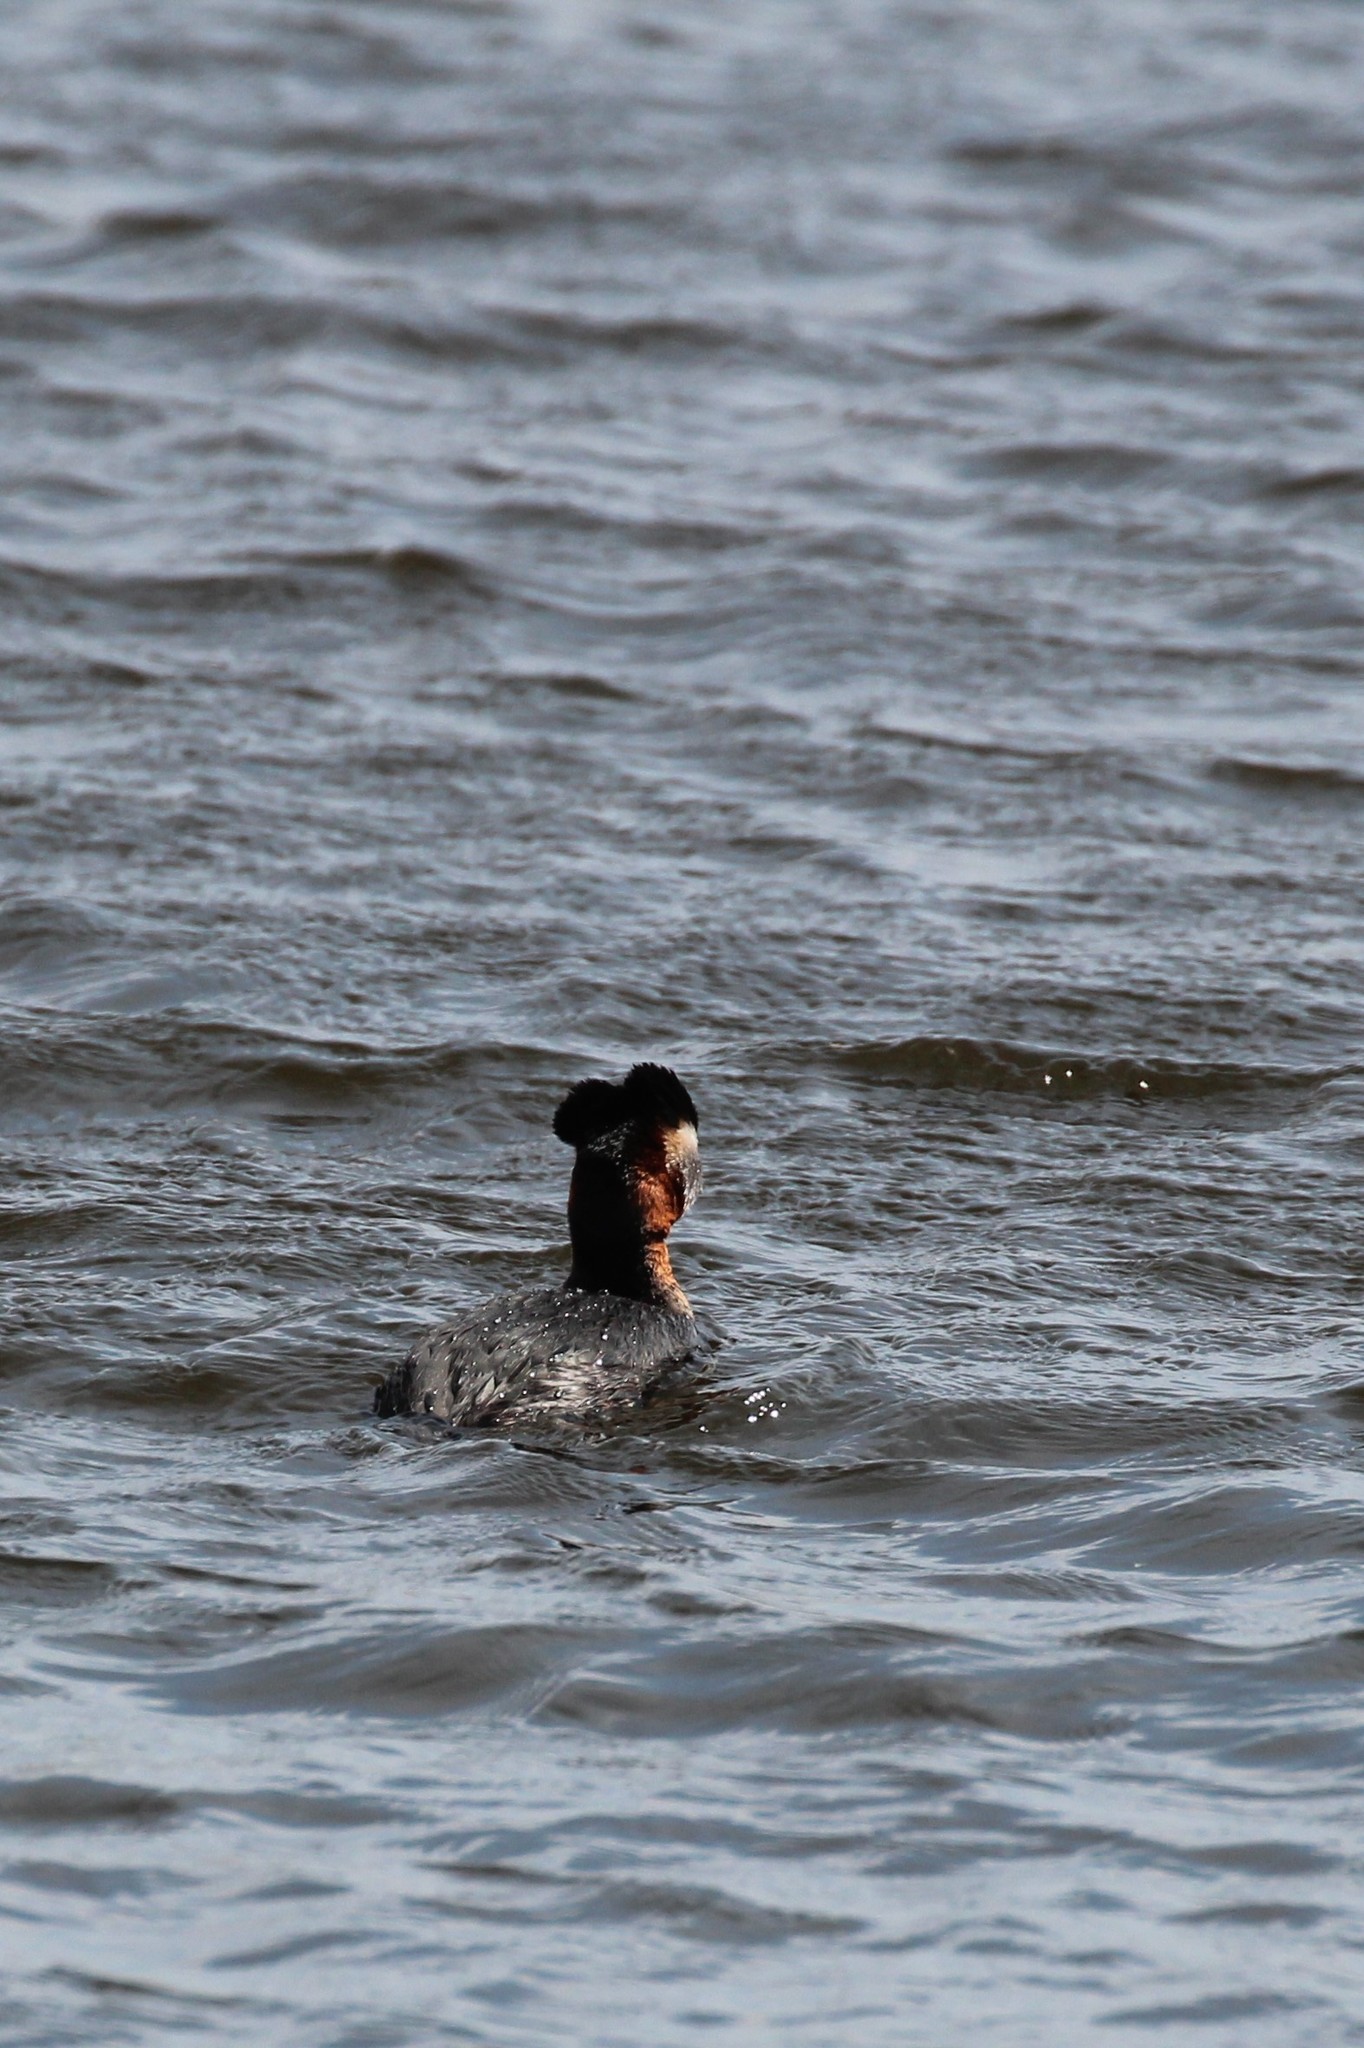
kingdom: Animalia
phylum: Chordata
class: Aves
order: Podicipediformes
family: Podicipedidae
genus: Podiceps
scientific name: Podiceps grisegena
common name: Red-necked grebe
